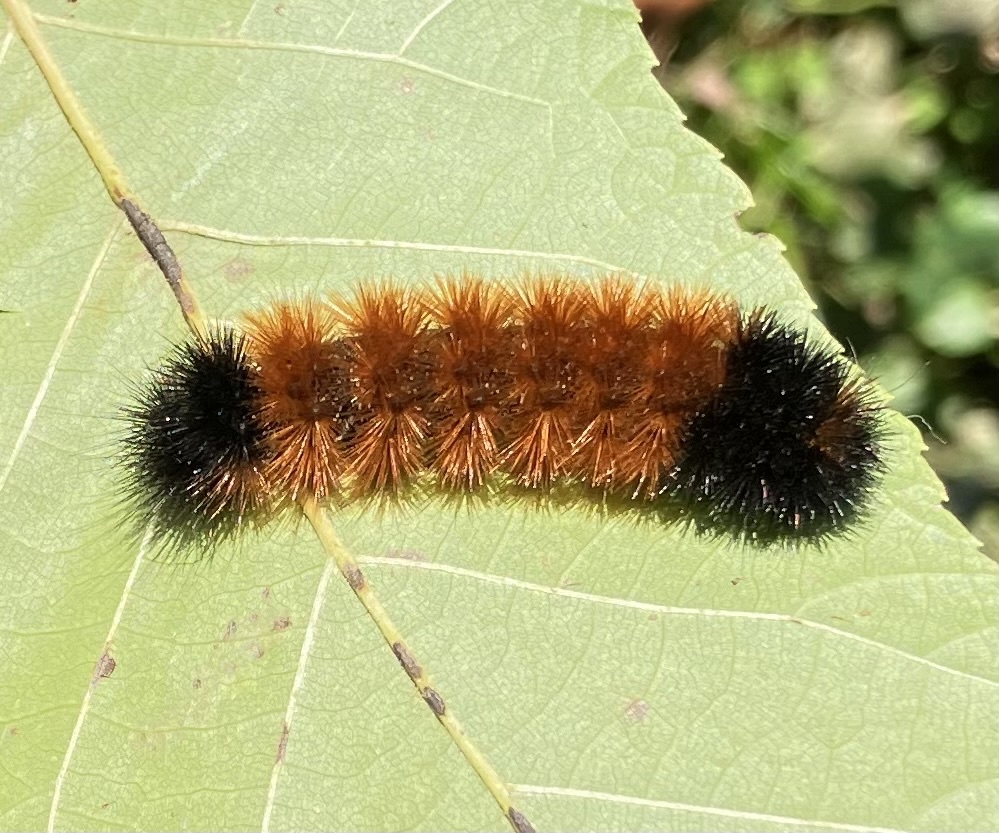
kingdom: Animalia
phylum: Arthropoda
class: Insecta
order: Lepidoptera
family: Erebidae
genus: Pyrrharctia
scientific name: Pyrrharctia isabella
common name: Isabella tiger moth
